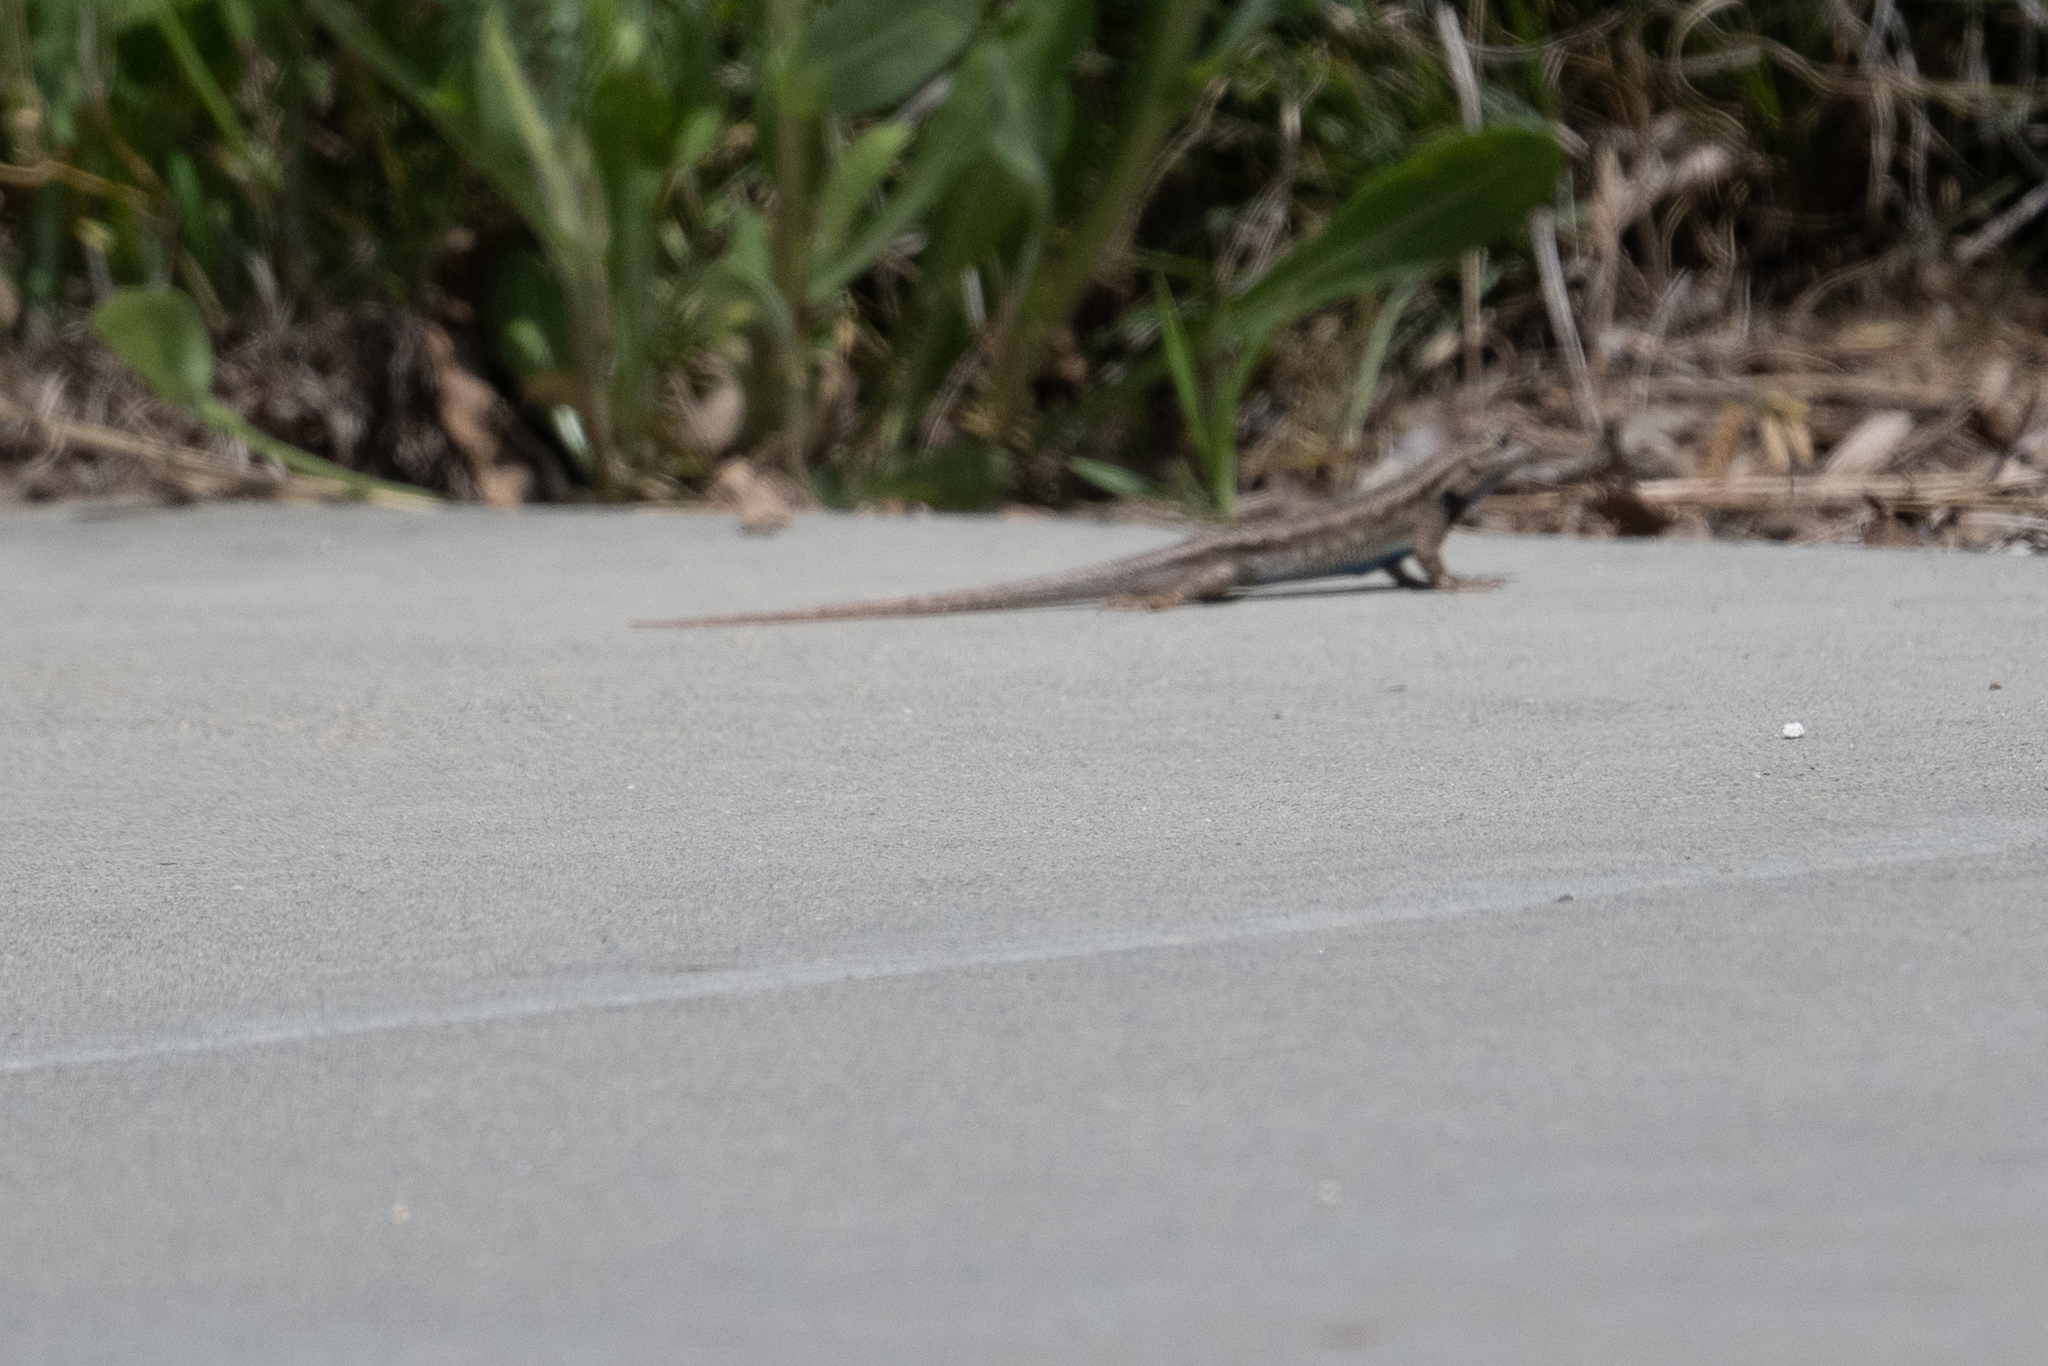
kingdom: Animalia
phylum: Chordata
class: Squamata
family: Phrynosomatidae
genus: Sceloporus
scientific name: Sceloporus occidentalis
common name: Western fence lizard
